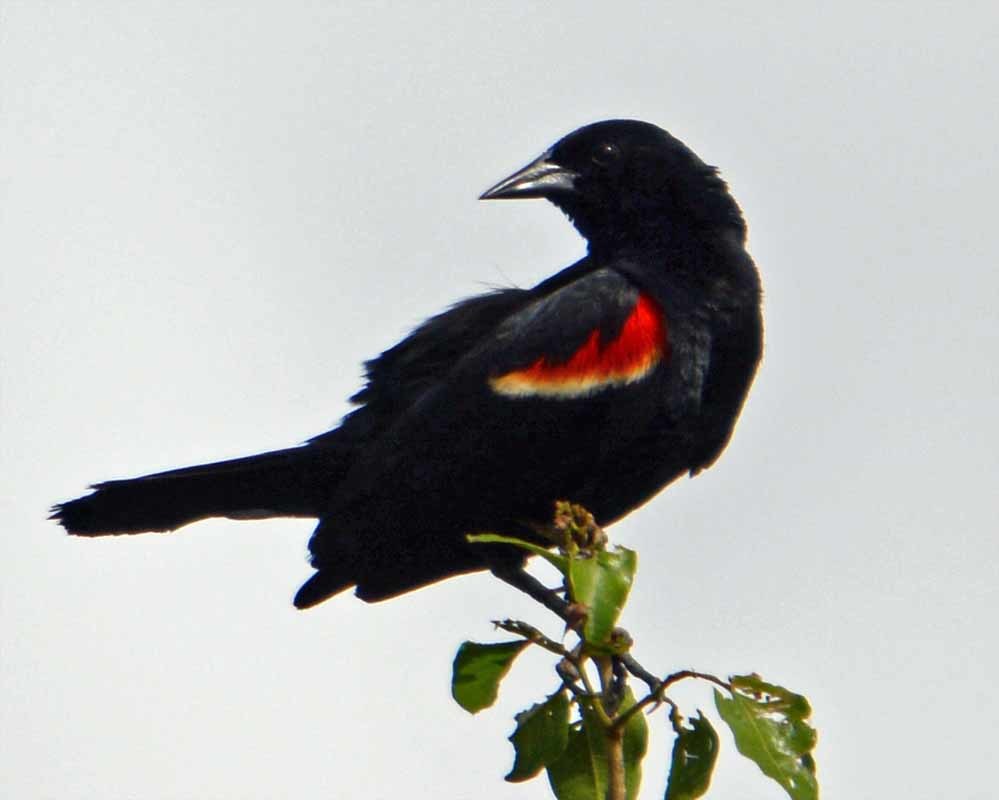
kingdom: Animalia
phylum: Chordata
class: Aves
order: Passeriformes
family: Icteridae
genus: Agelaius
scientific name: Agelaius phoeniceus
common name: Red-winged blackbird
